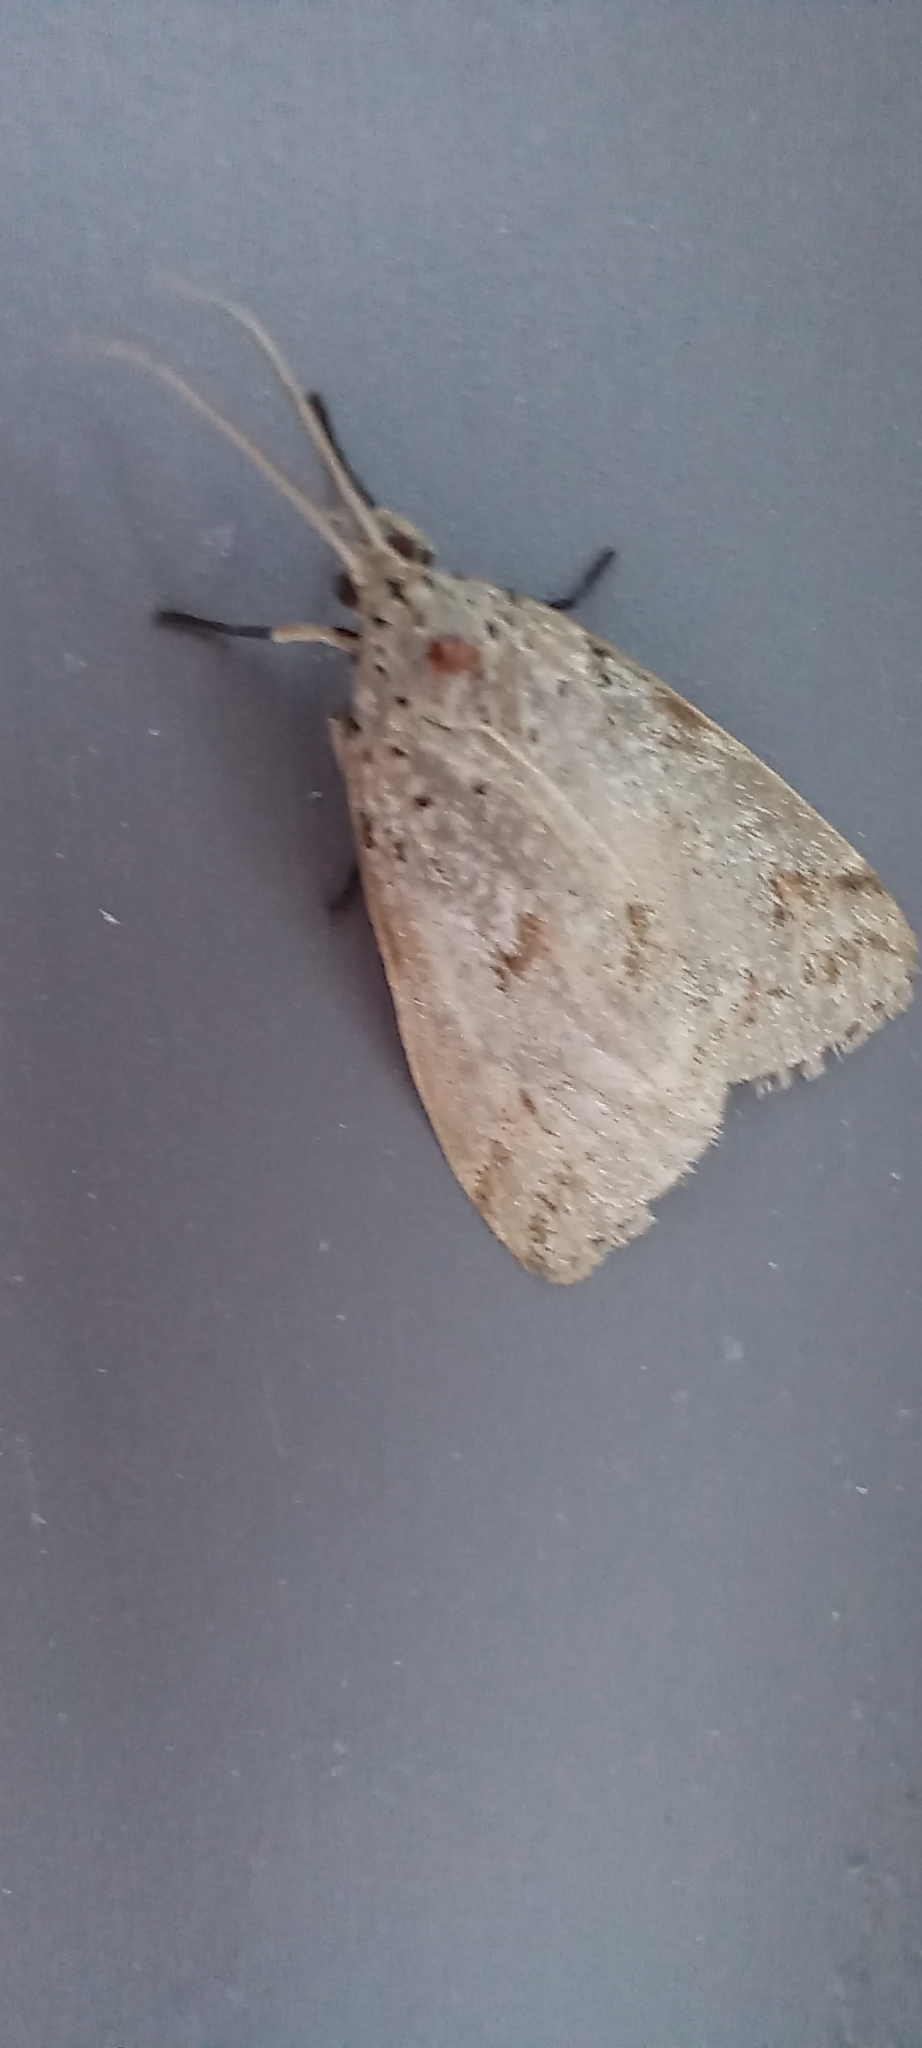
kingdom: Animalia
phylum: Arthropoda
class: Insecta
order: Lepidoptera
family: Erebidae
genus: Galtara
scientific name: Galtara rostrata
